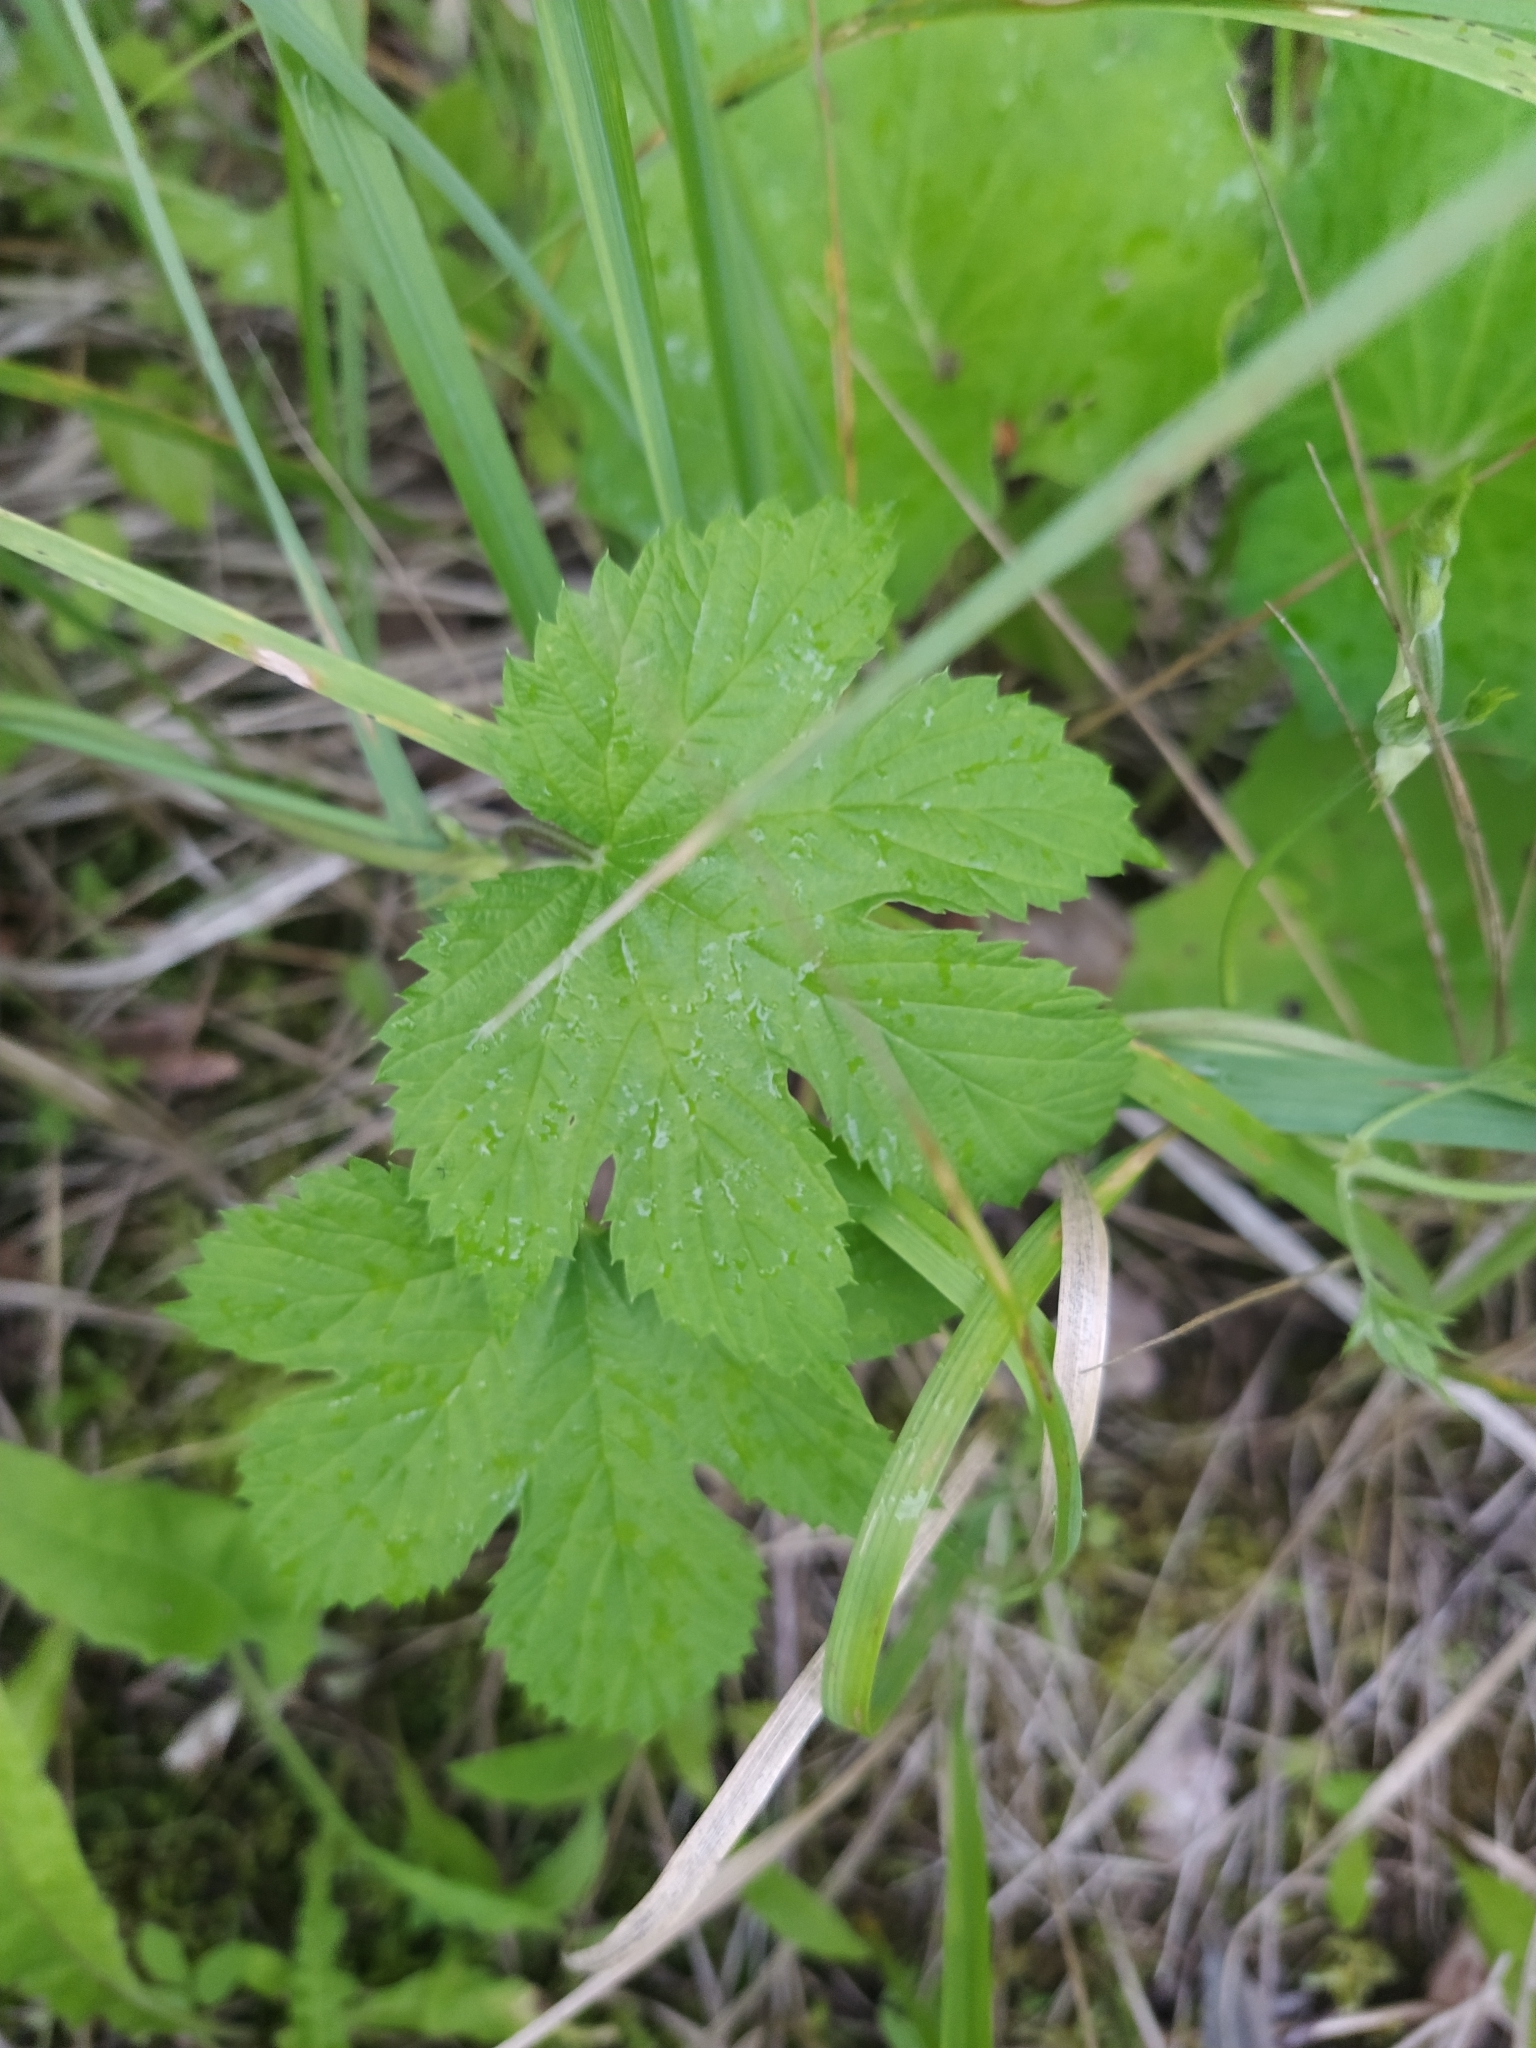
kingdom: Plantae
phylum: Tracheophyta
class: Magnoliopsida
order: Rosales
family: Cannabaceae
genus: Humulus
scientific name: Humulus lupulus
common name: Hop
